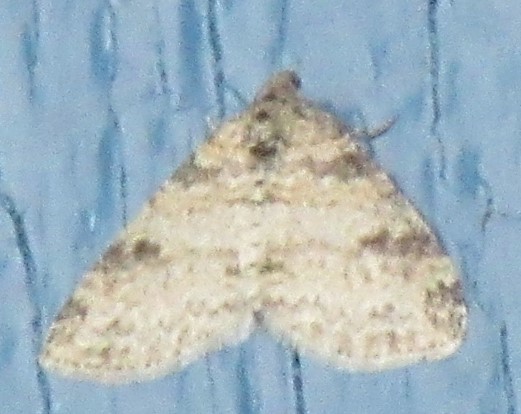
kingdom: Animalia
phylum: Arthropoda
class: Insecta
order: Lepidoptera
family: Geometridae
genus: Lobophora
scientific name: Lobophora nivigerata
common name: Powdered bigwing
